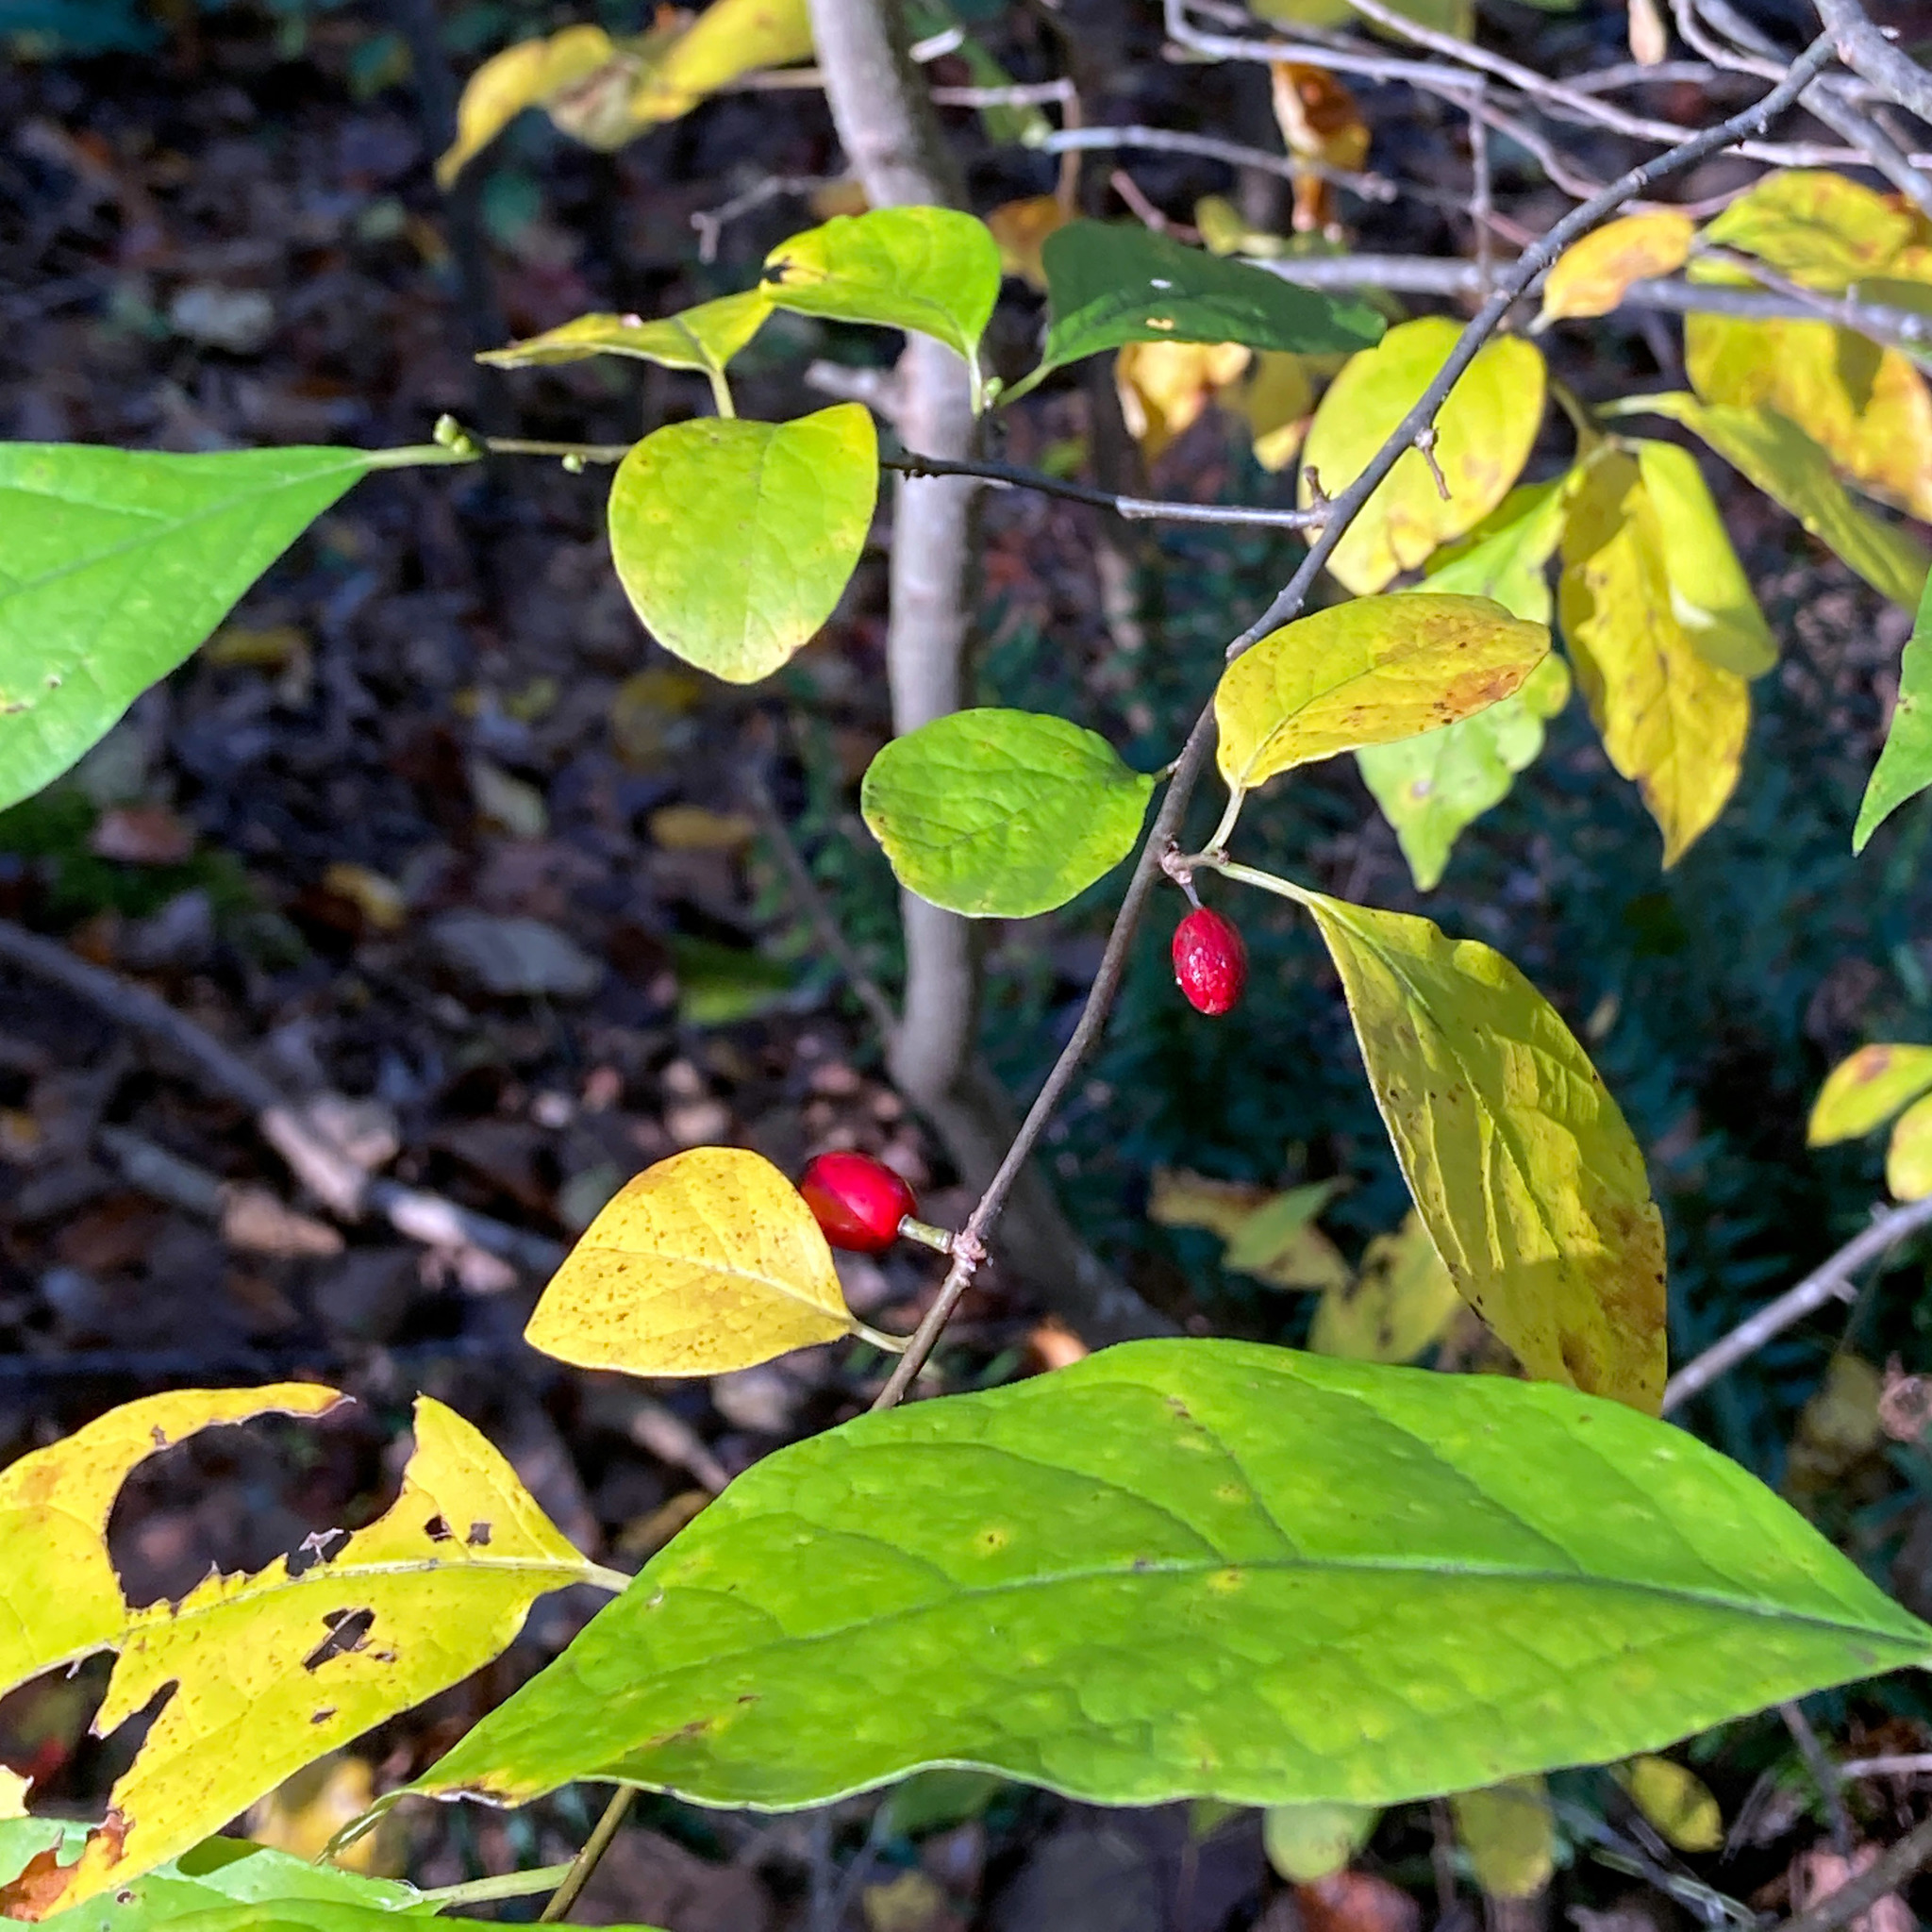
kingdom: Plantae
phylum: Tracheophyta
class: Magnoliopsida
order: Laurales
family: Lauraceae
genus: Lindera
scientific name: Lindera benzoin
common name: Spicebush
